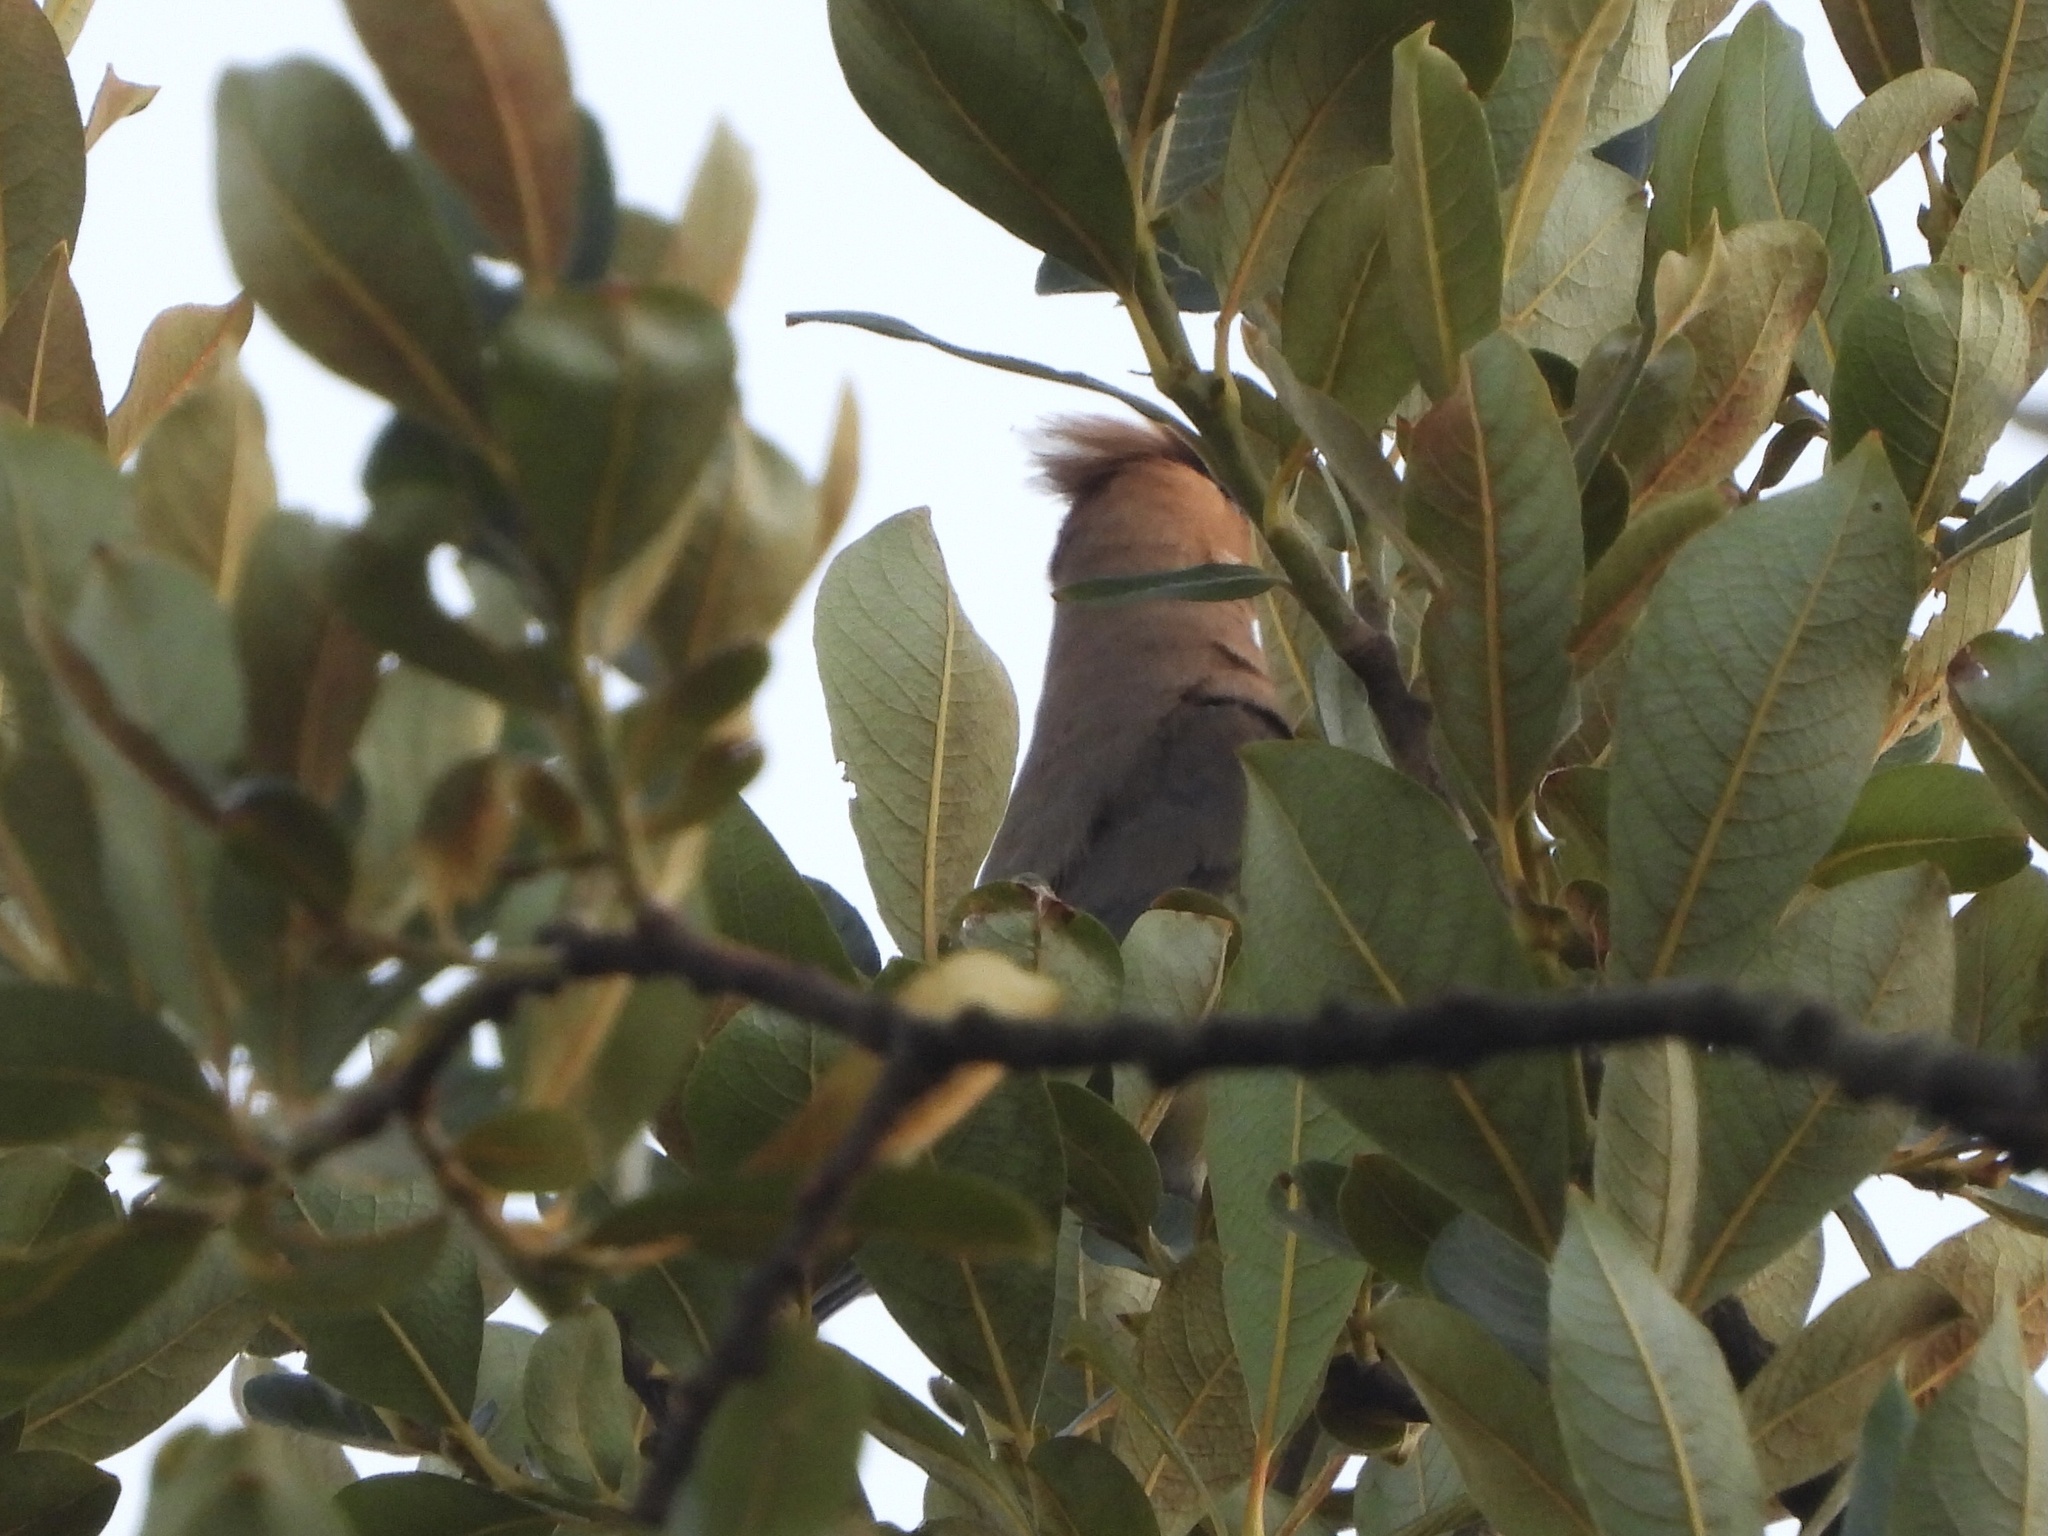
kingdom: Animalia
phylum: Chordata
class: Aves
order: Passeriformes
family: Bombycillidae
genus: Bombycilla
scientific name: Bombycilla cedrorum
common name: Cedar waxwing
